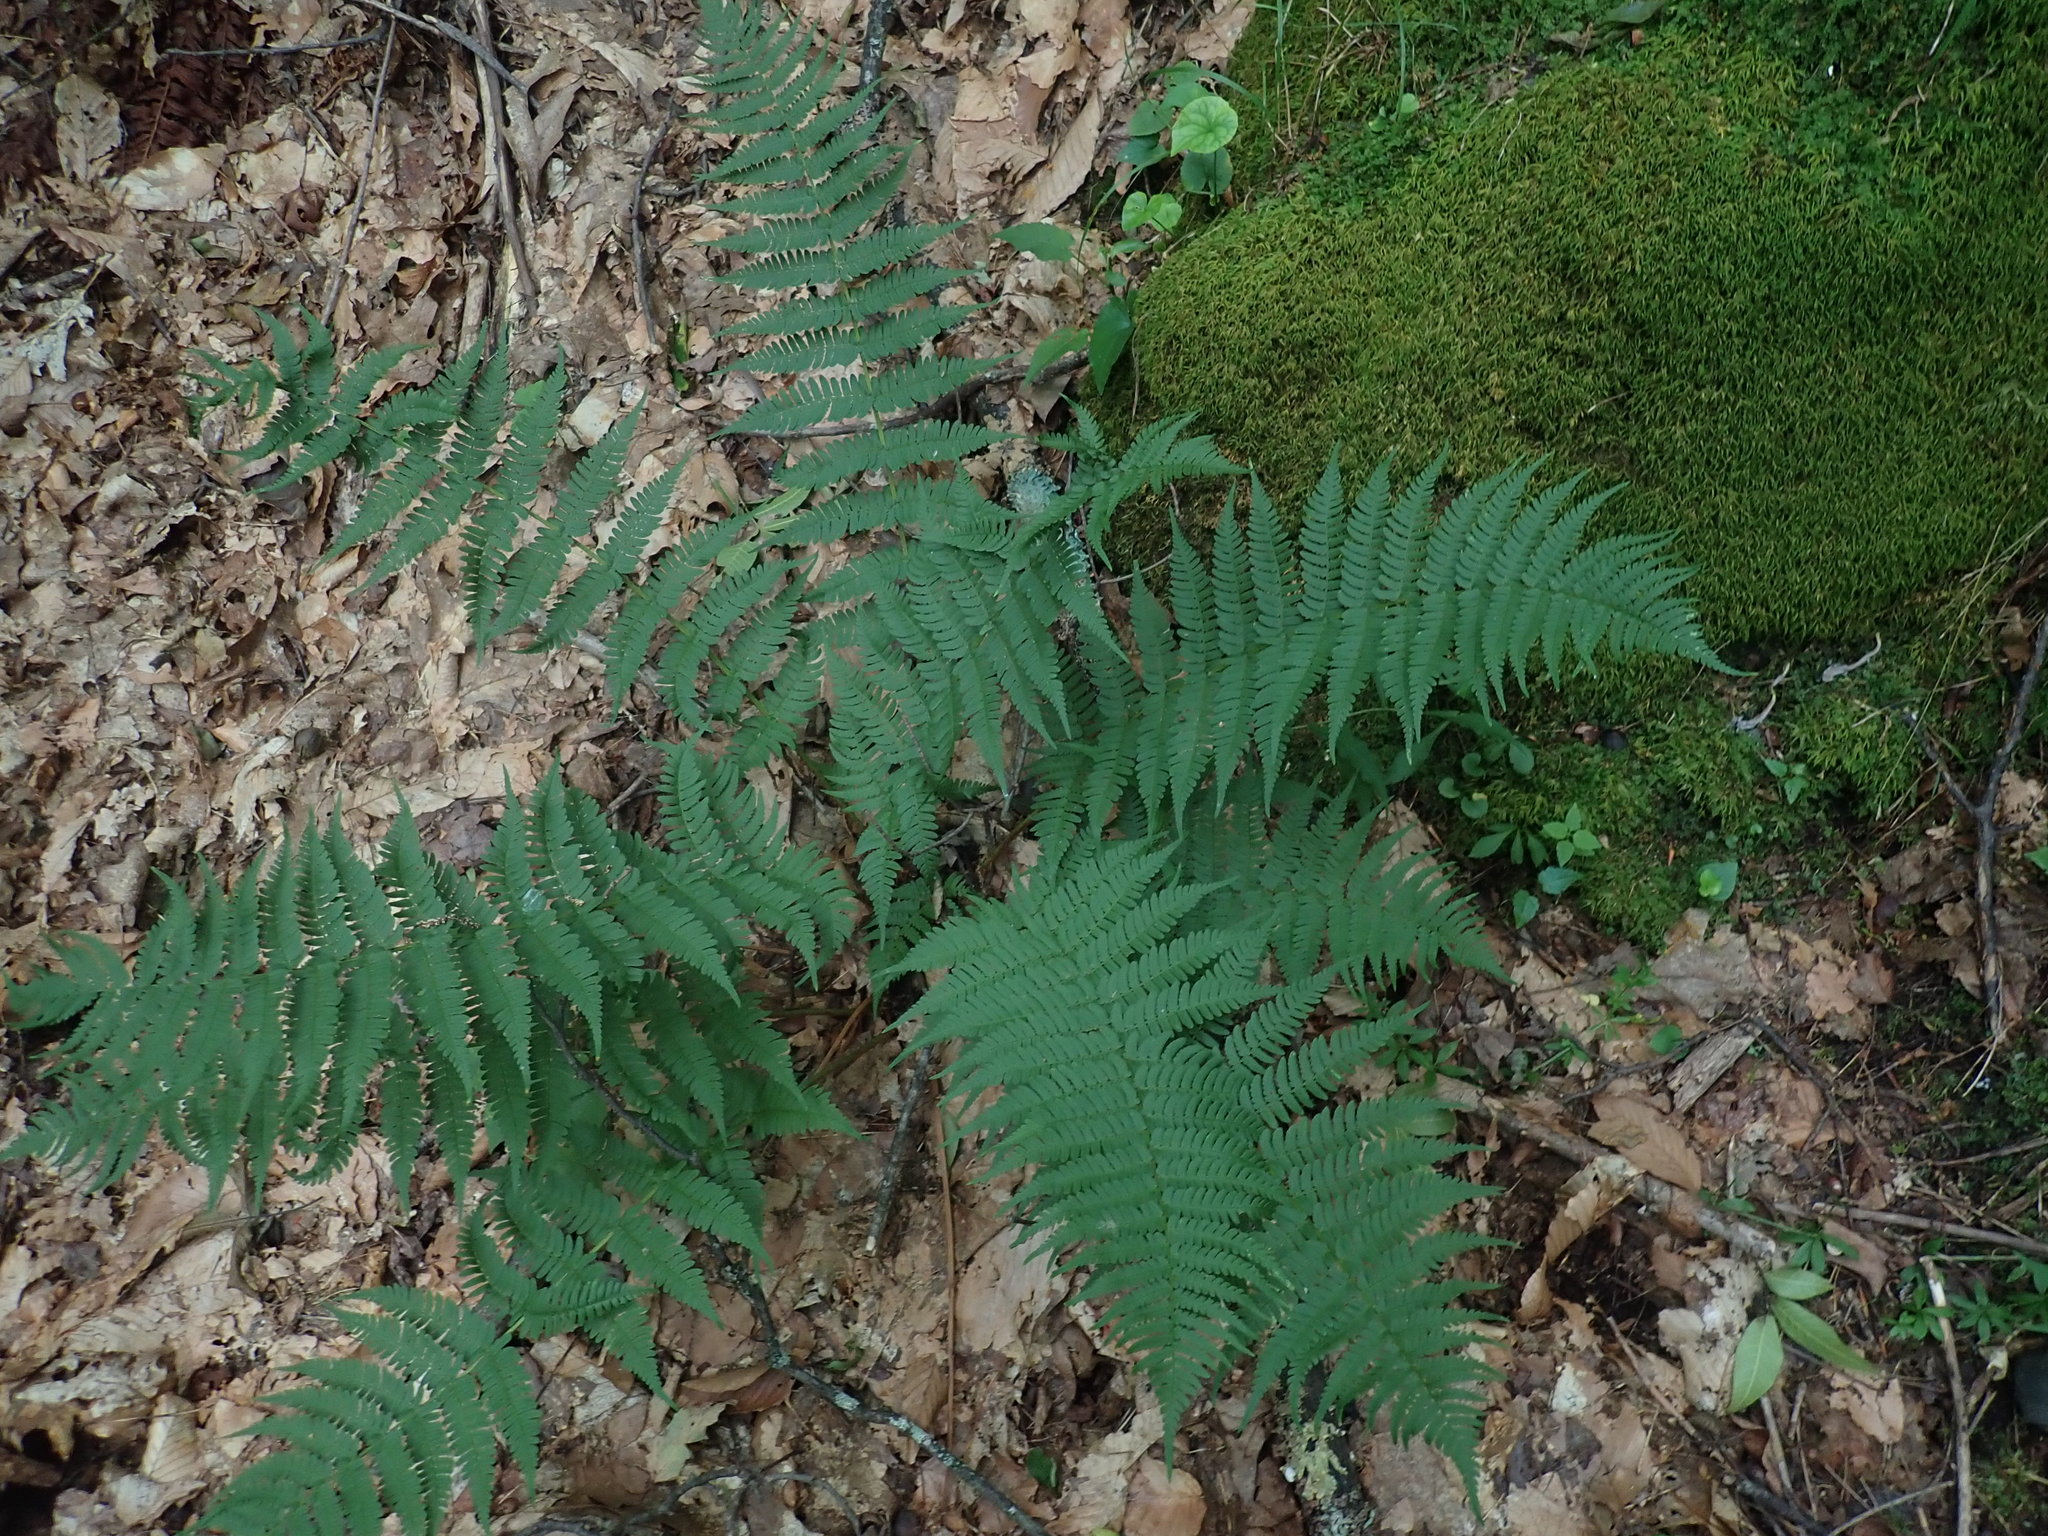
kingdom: Plantae
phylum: Tracheophyta
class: Polypodiopsida
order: Polypodiales
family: Dryopteridaceae
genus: Dryopteris
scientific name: Dryopteris marginalis
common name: Marginal wood fern
